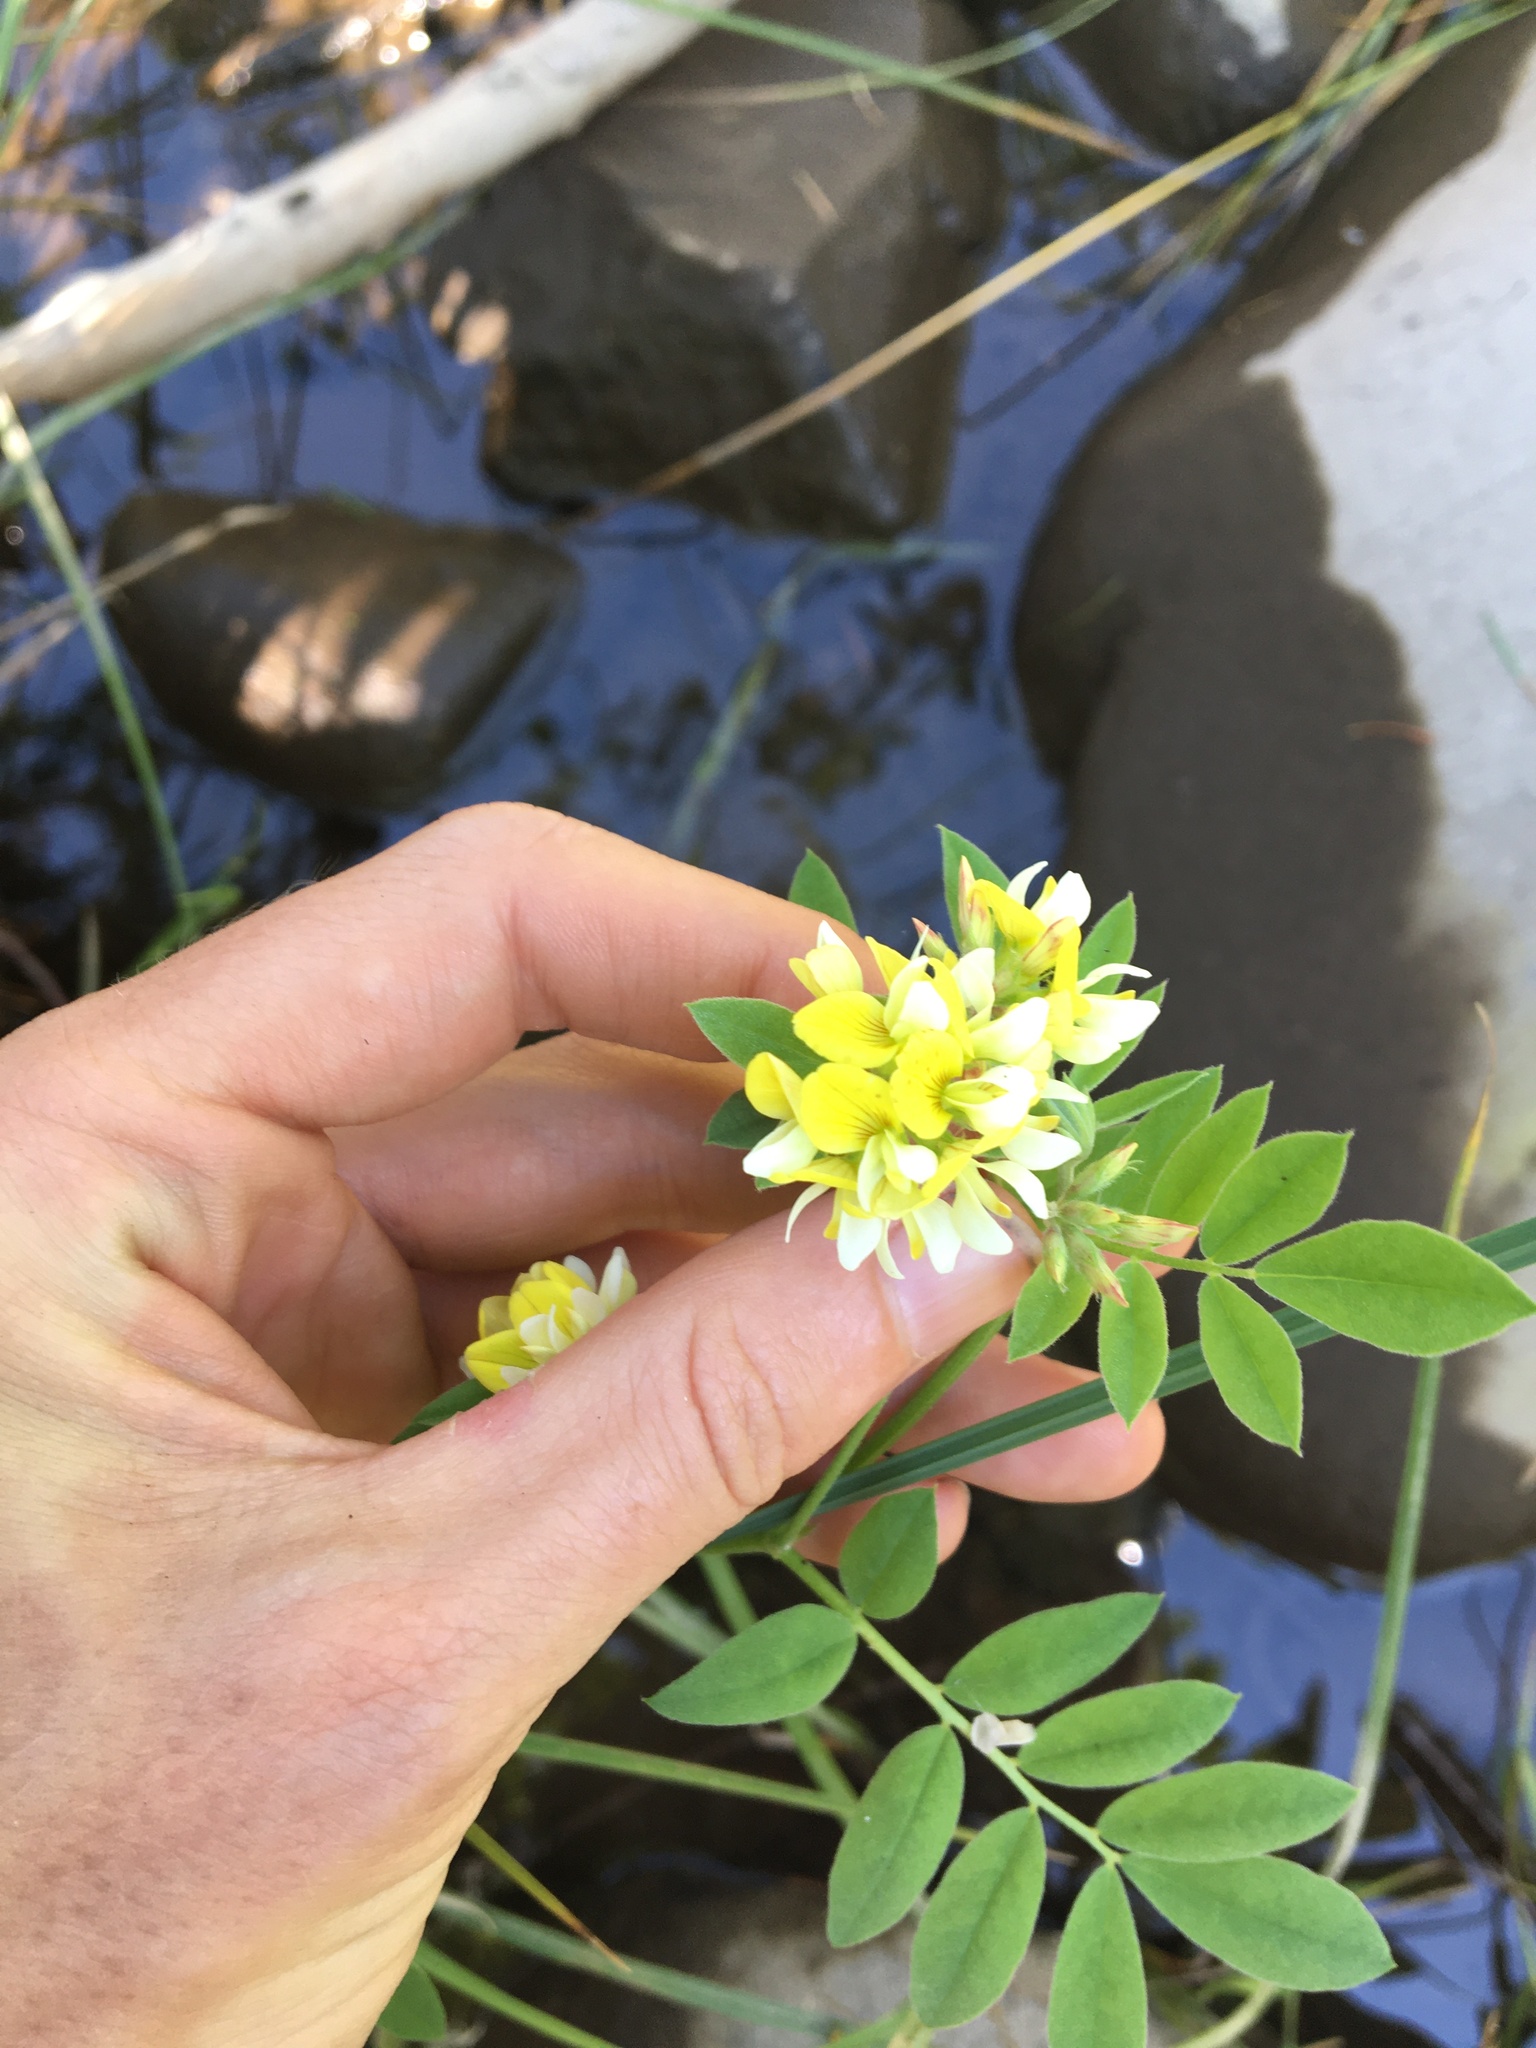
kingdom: Plantae
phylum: Tracheophyta
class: Magnoliopsida
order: Fabales
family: Fabaceae
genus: Hosackia
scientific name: Hosackia oblongifolia
